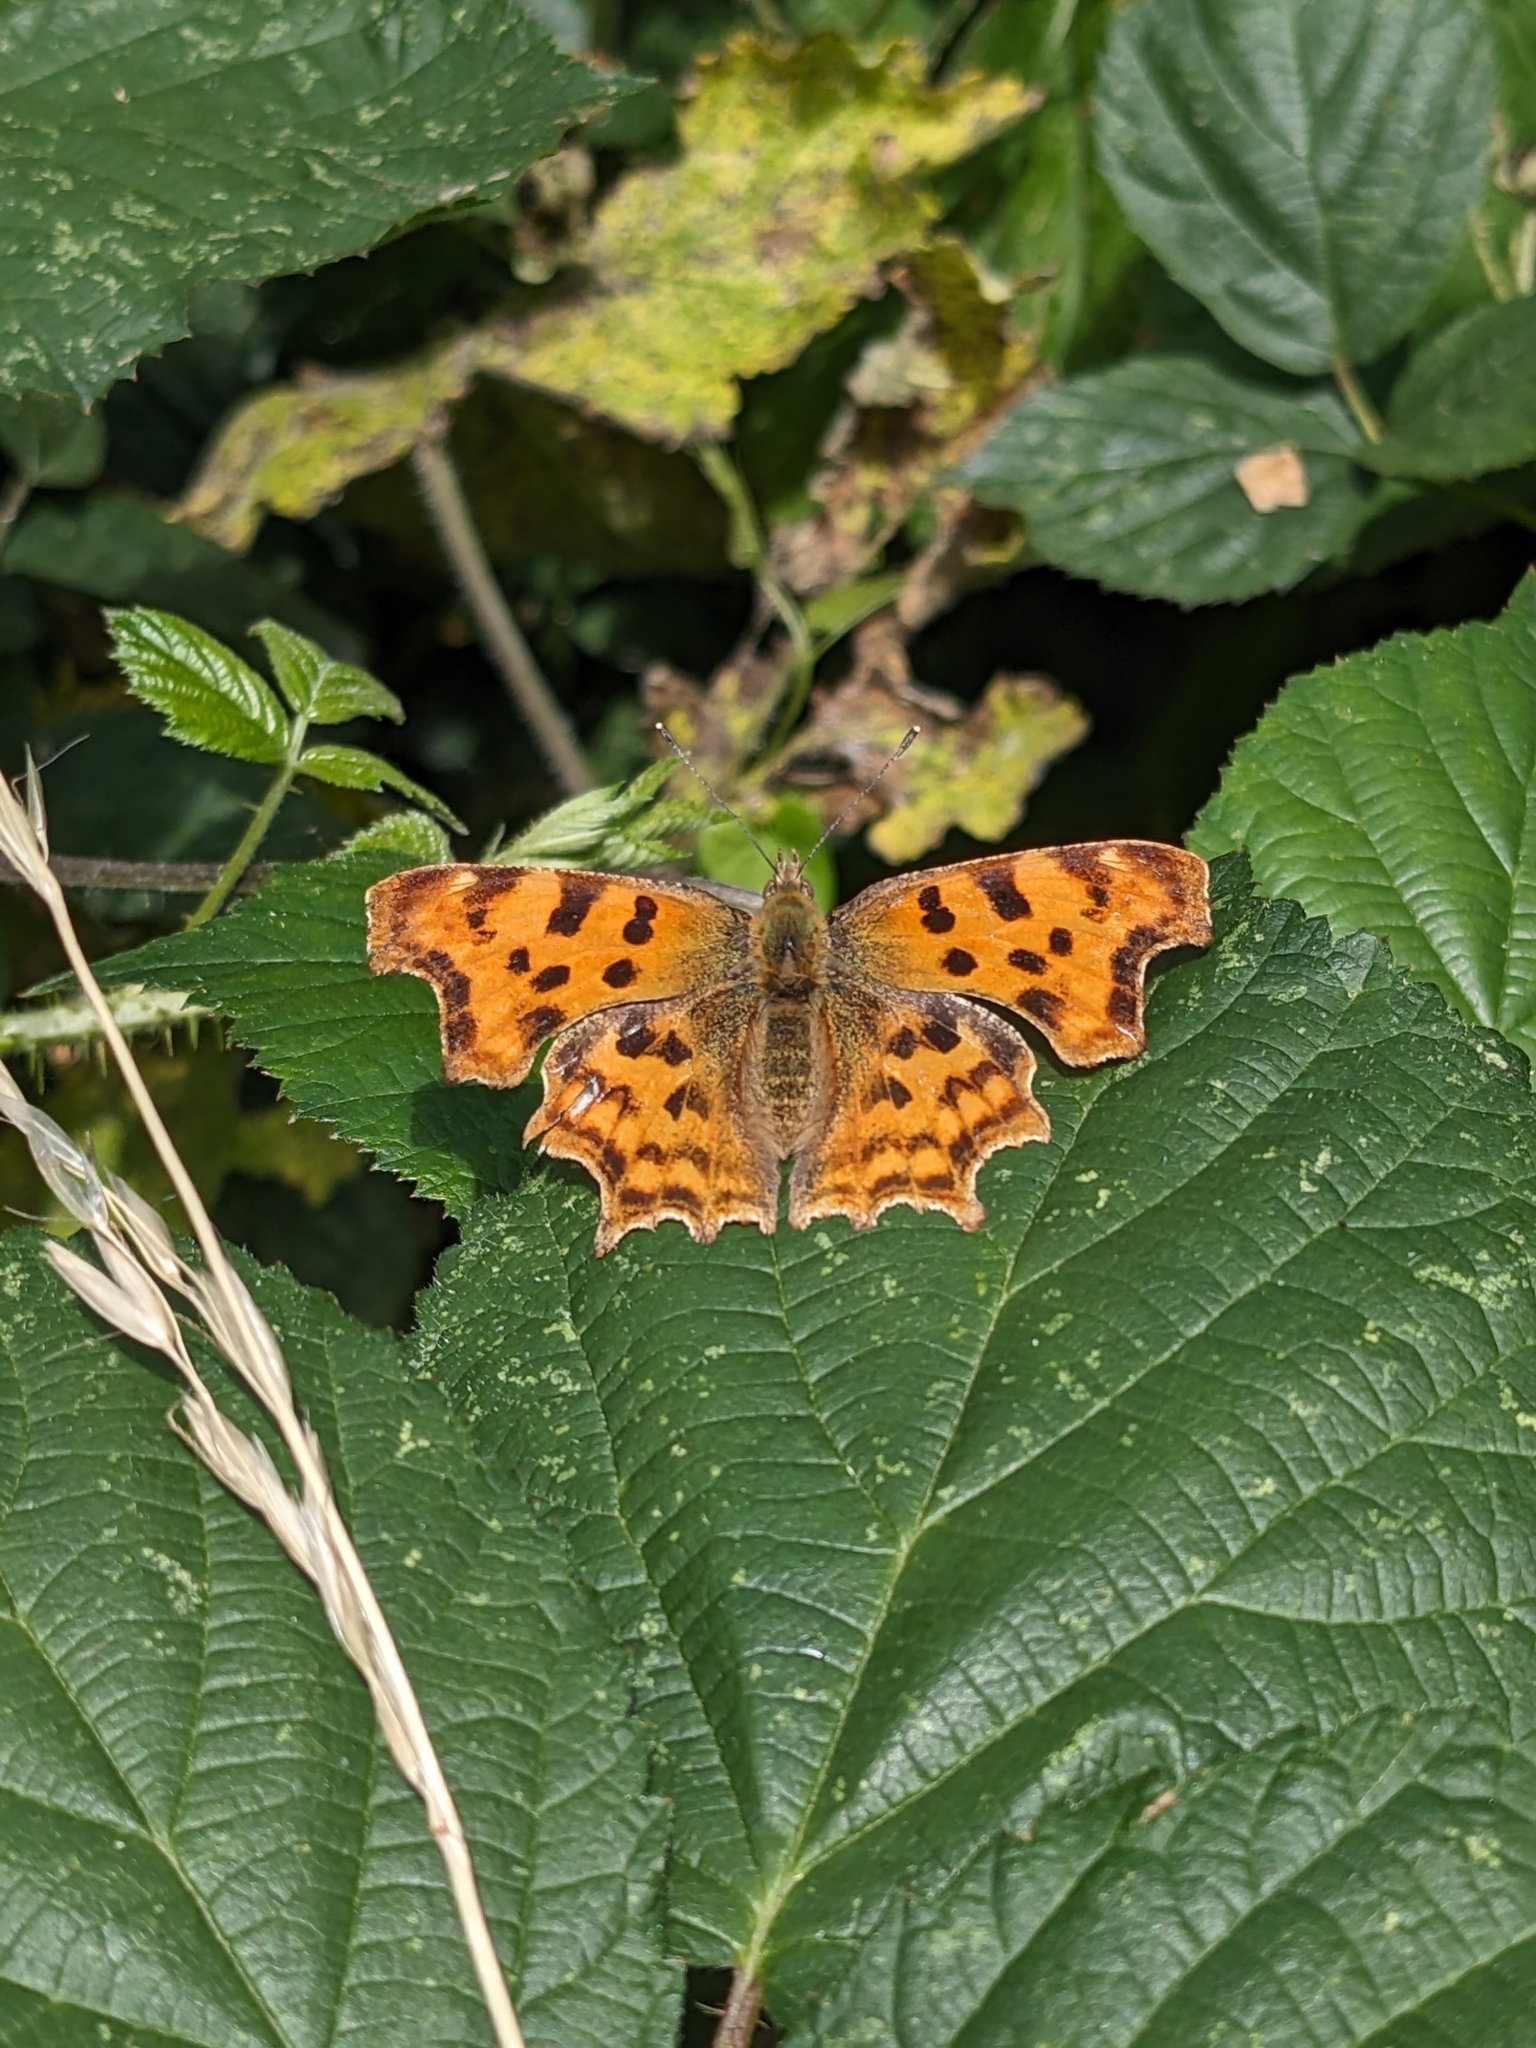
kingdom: Animalia
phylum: Arthropoda
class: Insecta
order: Lepidoptera
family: Nymphalidae
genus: Polygonia
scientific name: Polygonia c-album
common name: Comma
